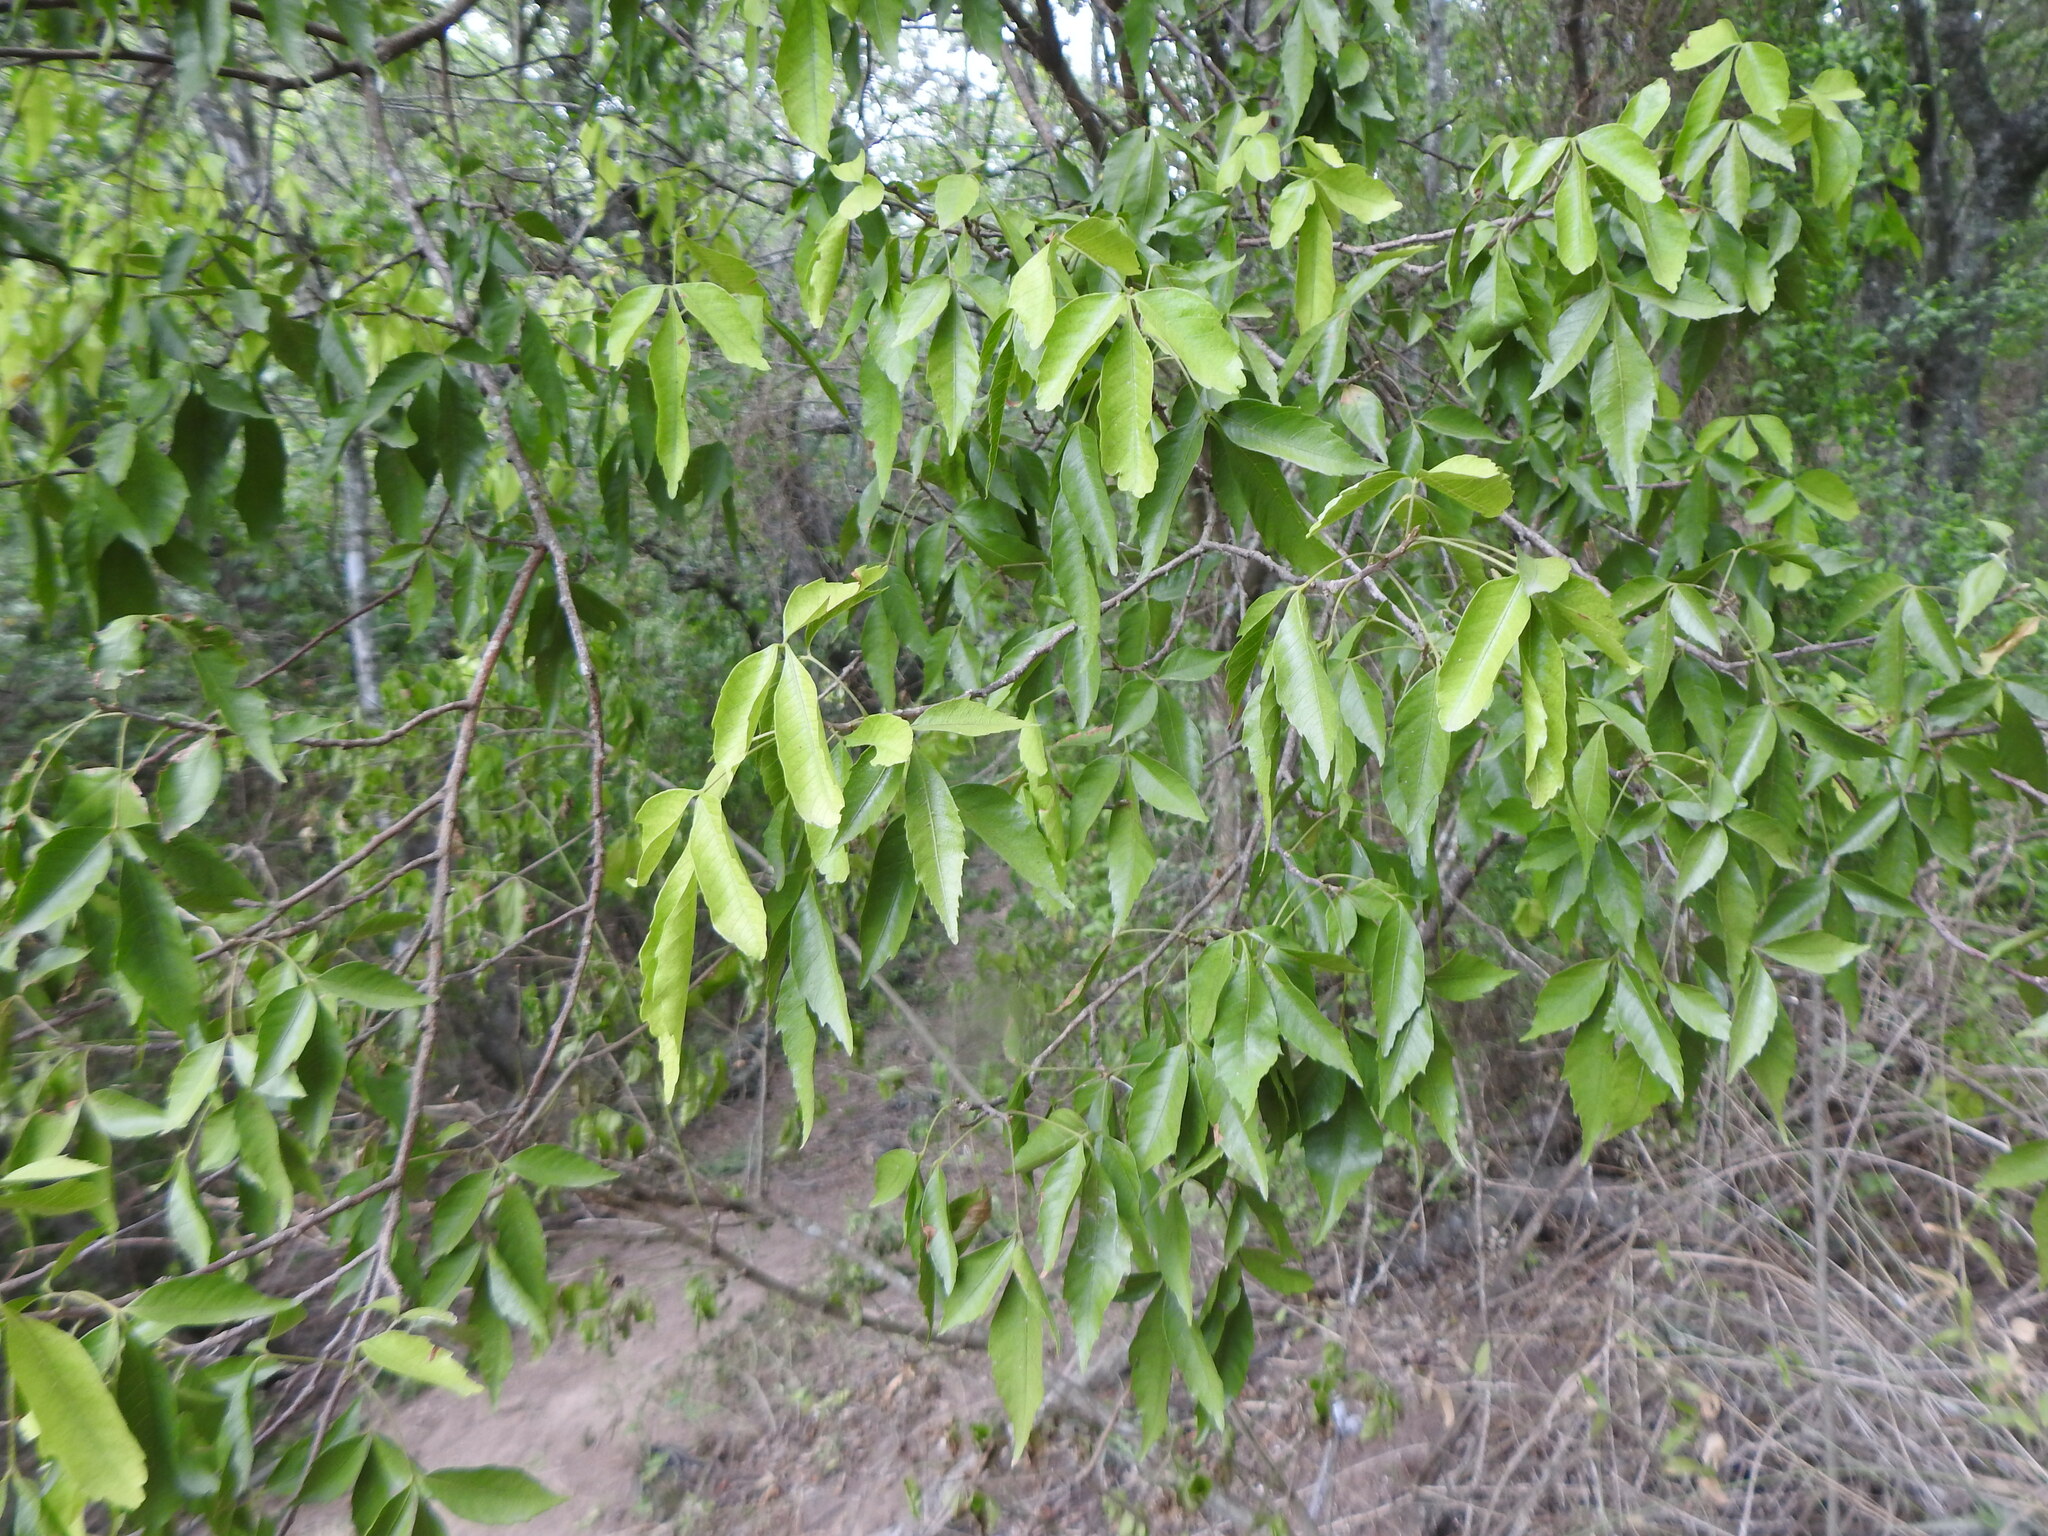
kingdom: Plantae
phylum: Tracheophyta
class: Magnoliopsida
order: Sapindales
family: Sapindaceae
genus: Allophylus
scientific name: Allophylus edulis
